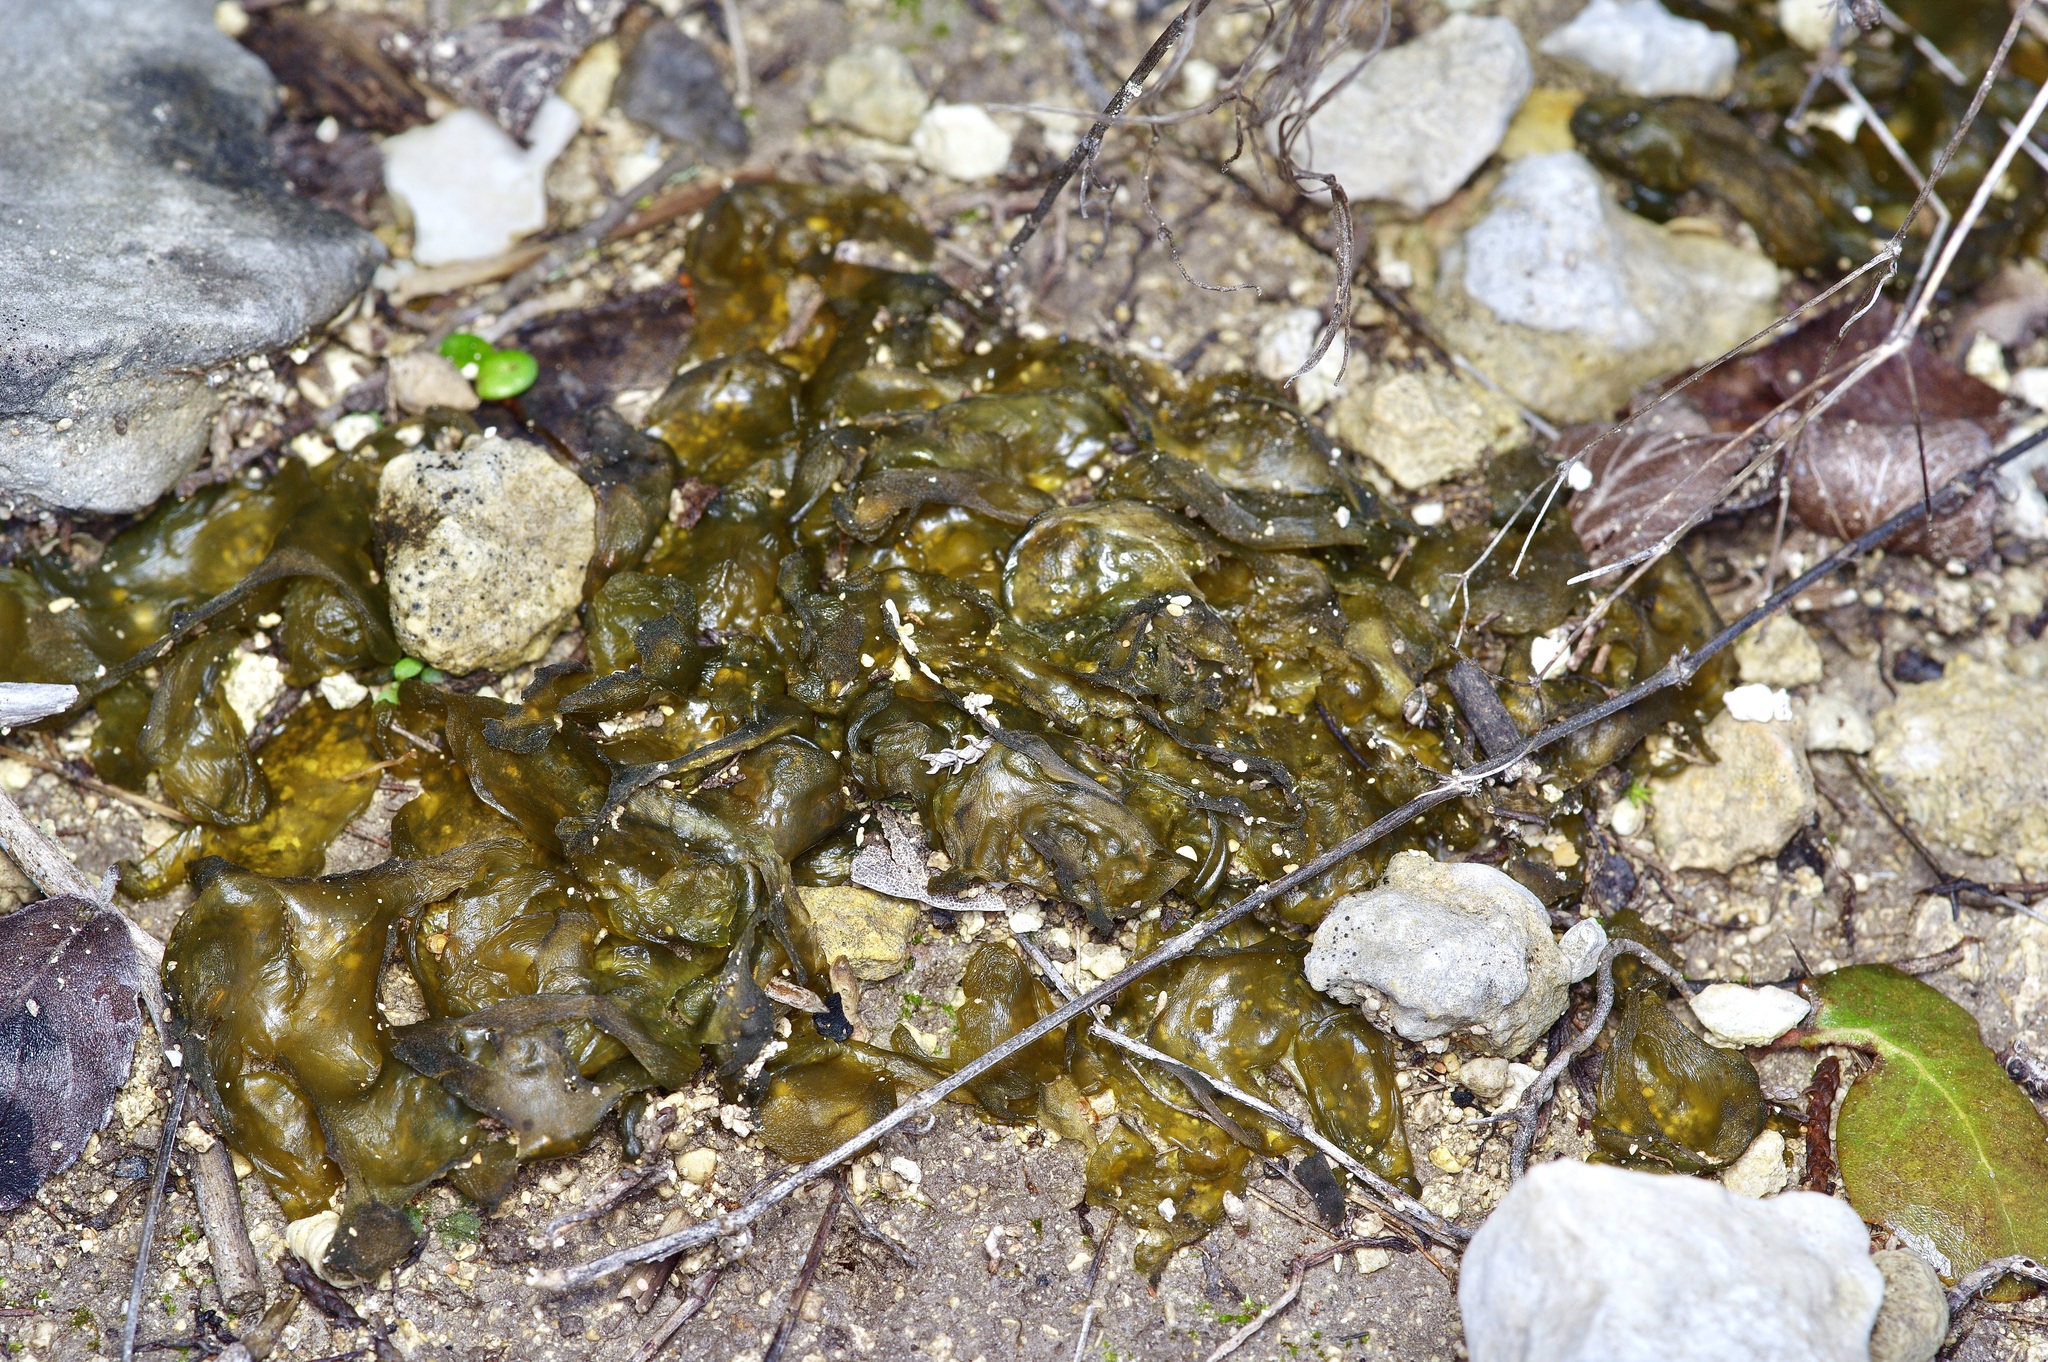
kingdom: Bacteria
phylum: Cyanobacteria
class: Cyanobacteriia
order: Cyanobacteriales
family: Nostocaceae
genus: Nostoc
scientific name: Nostoc commune
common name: Star jelly
